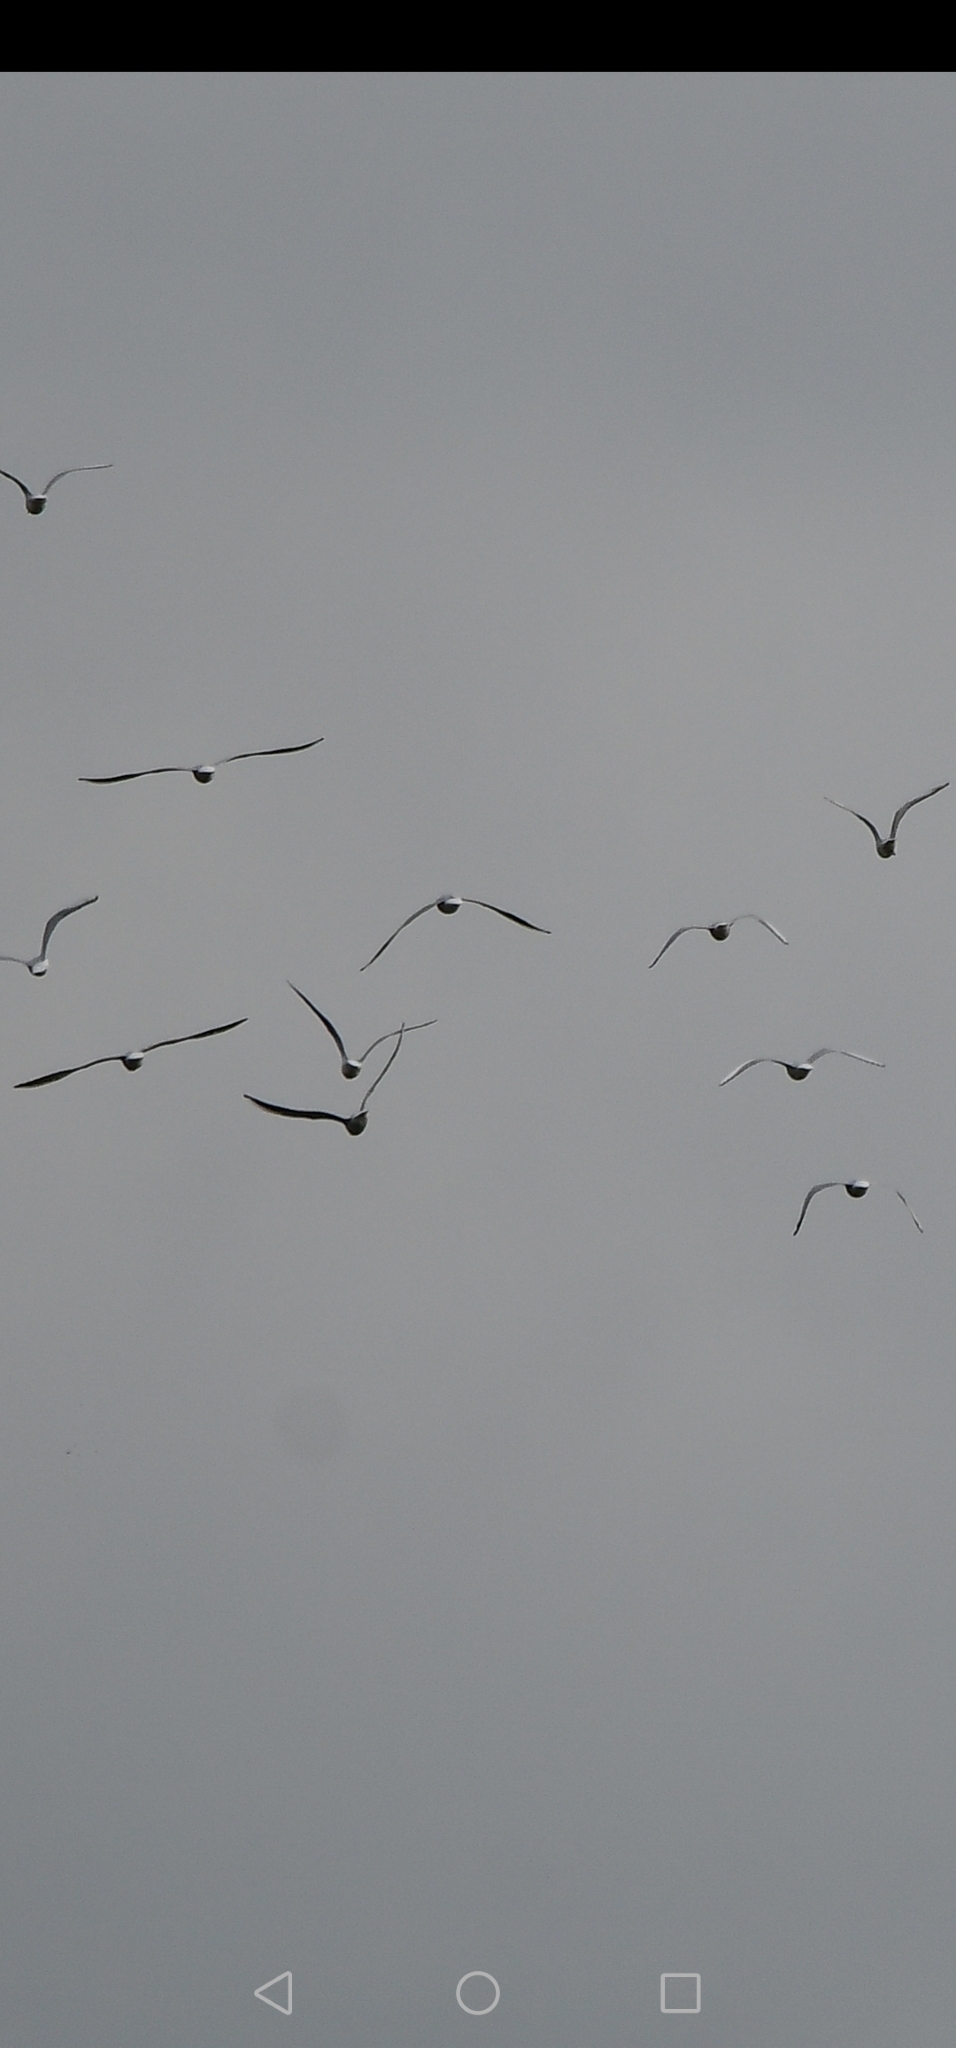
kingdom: Animalia
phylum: Chordata
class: Aves
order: Charadriiformes
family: Laridae
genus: Chroicocephalus
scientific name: Chroicocephalus ridibundus
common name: Black-headed gull
